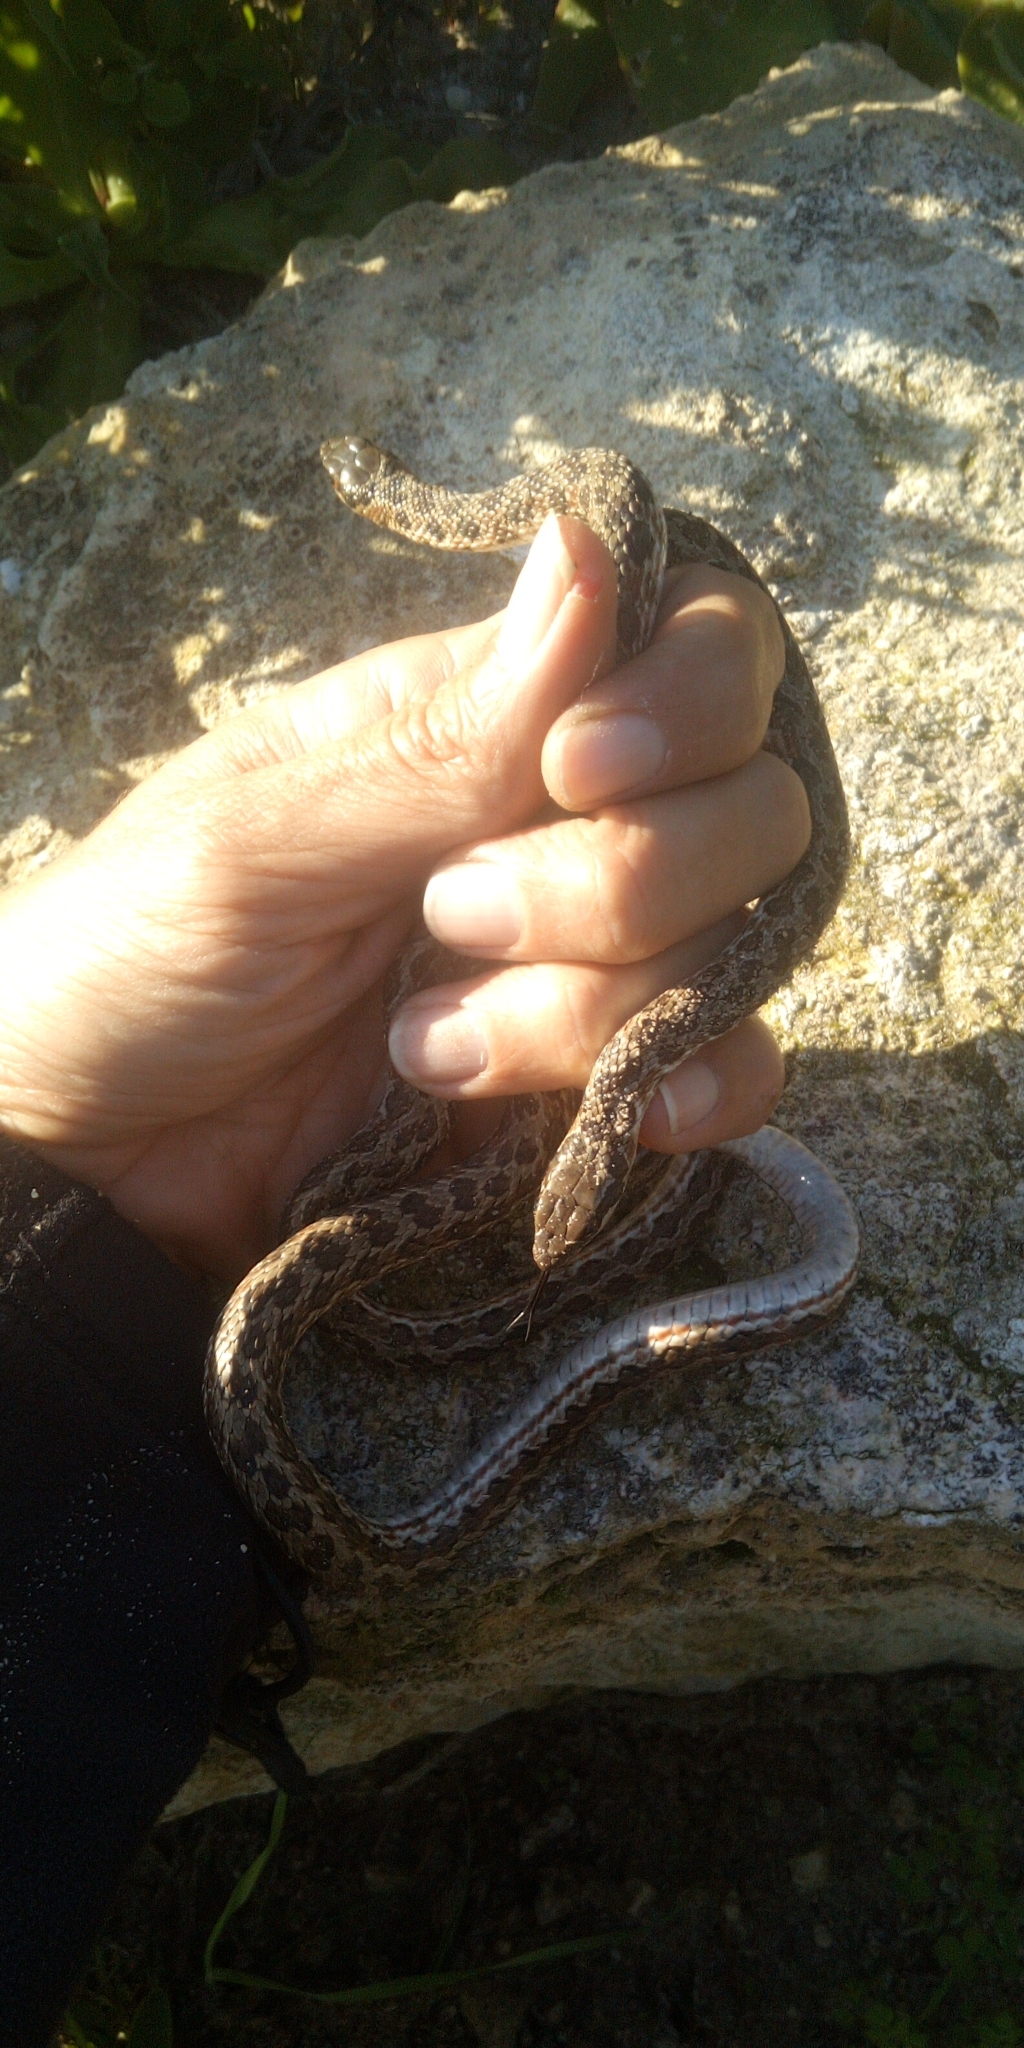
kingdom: Animalia
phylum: Chordata
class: Squamata
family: Psammophiidae
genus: Psammophylax
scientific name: Psammophylax rhombeatus
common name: Rhombic skaapsteker
